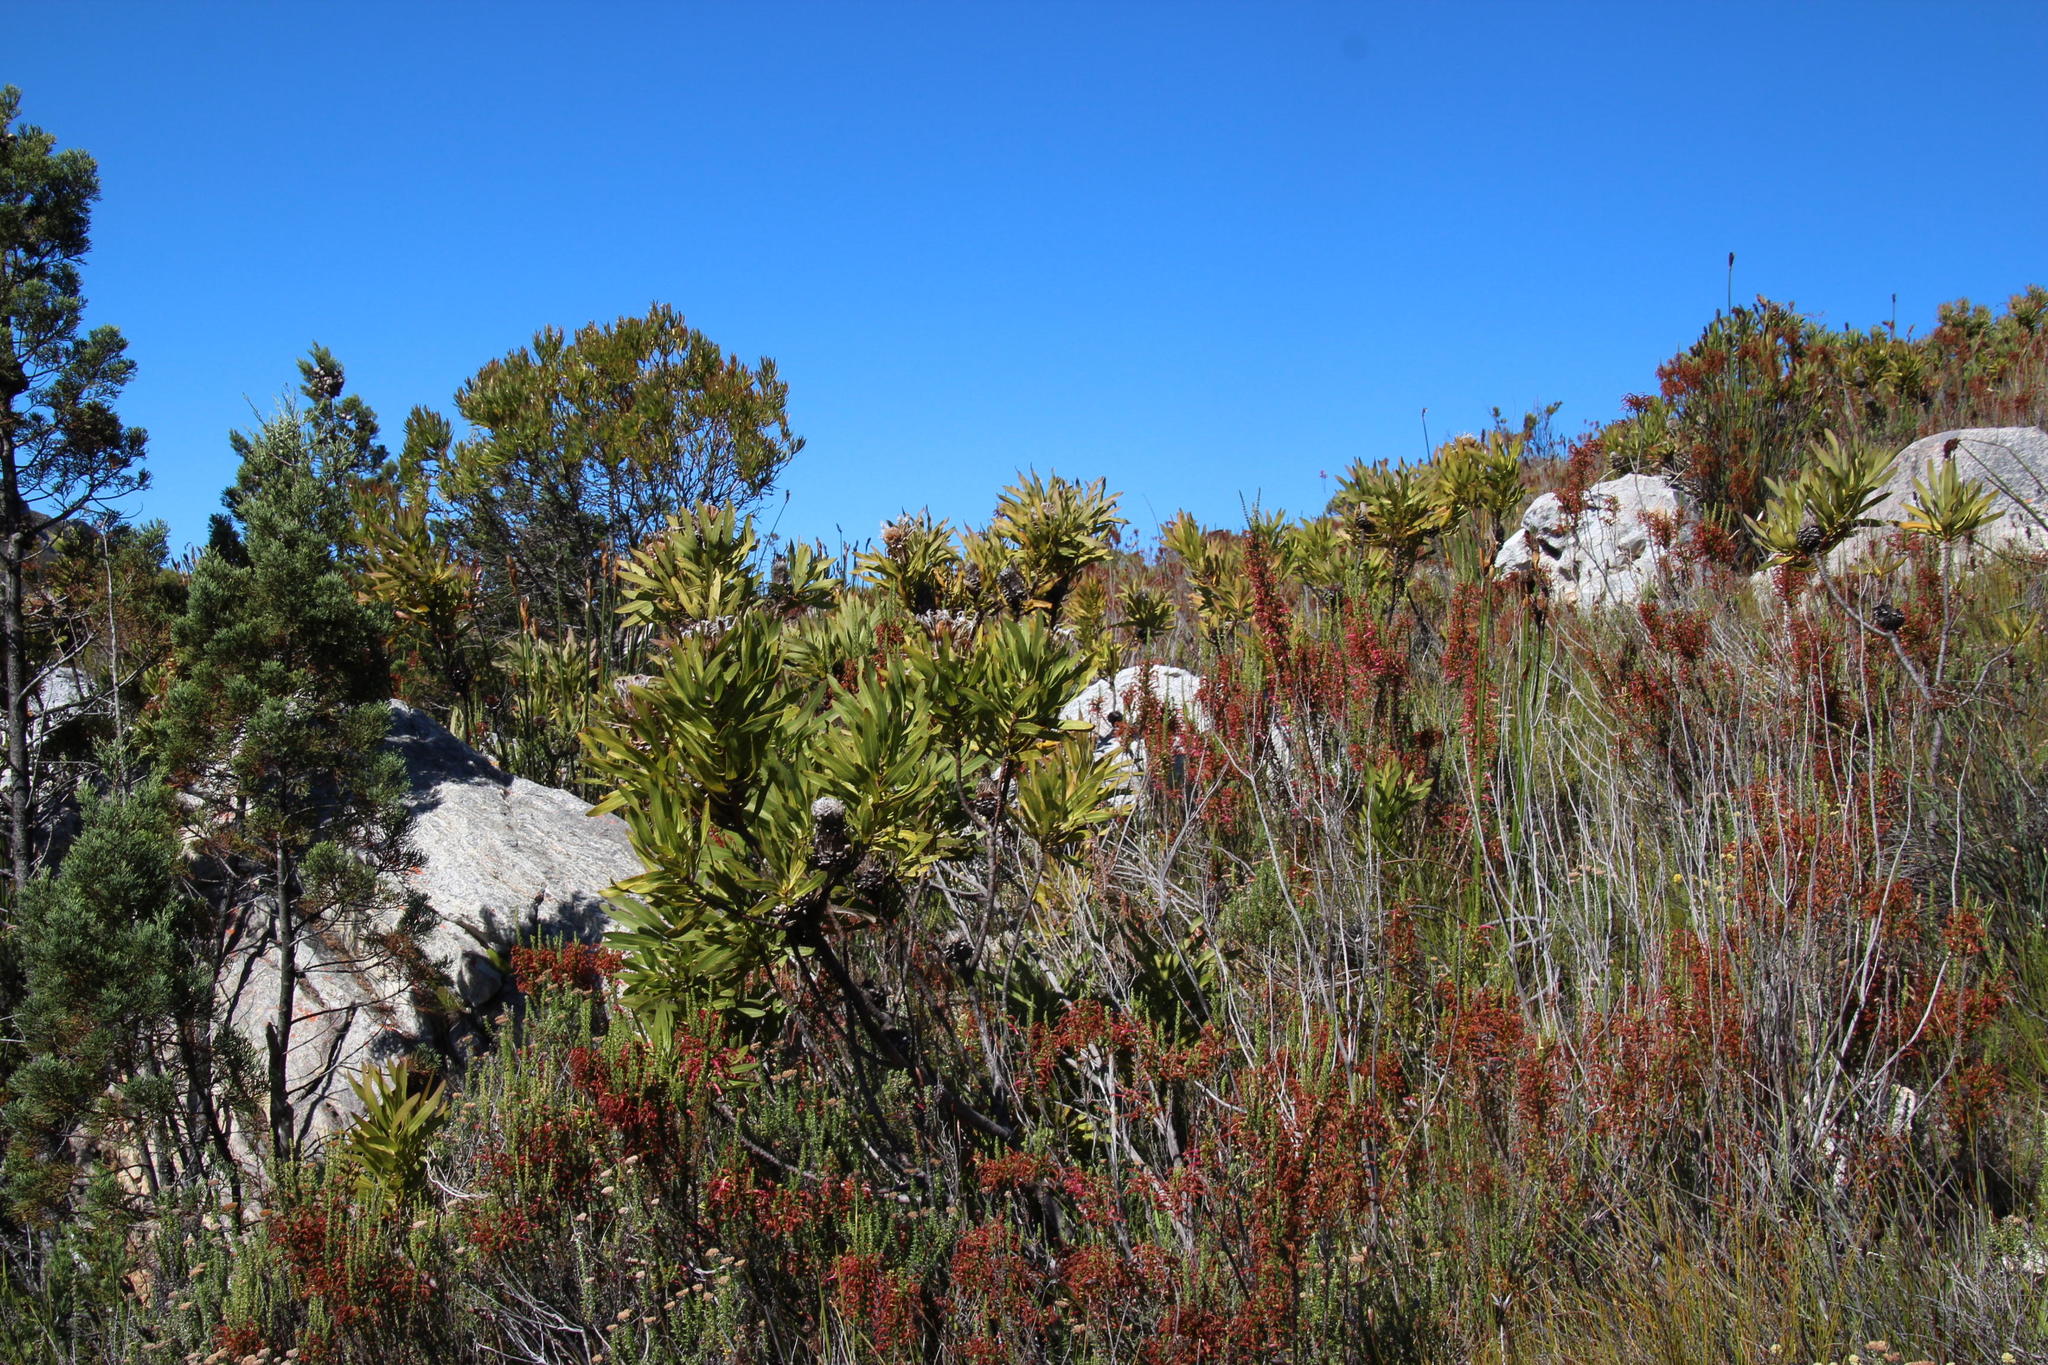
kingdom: Plantae
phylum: Tracheophyta
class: Magnoliopsida
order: Proteales
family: Proteaceae
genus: Protea
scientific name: Protea neriifolia
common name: Blue sugarbush
